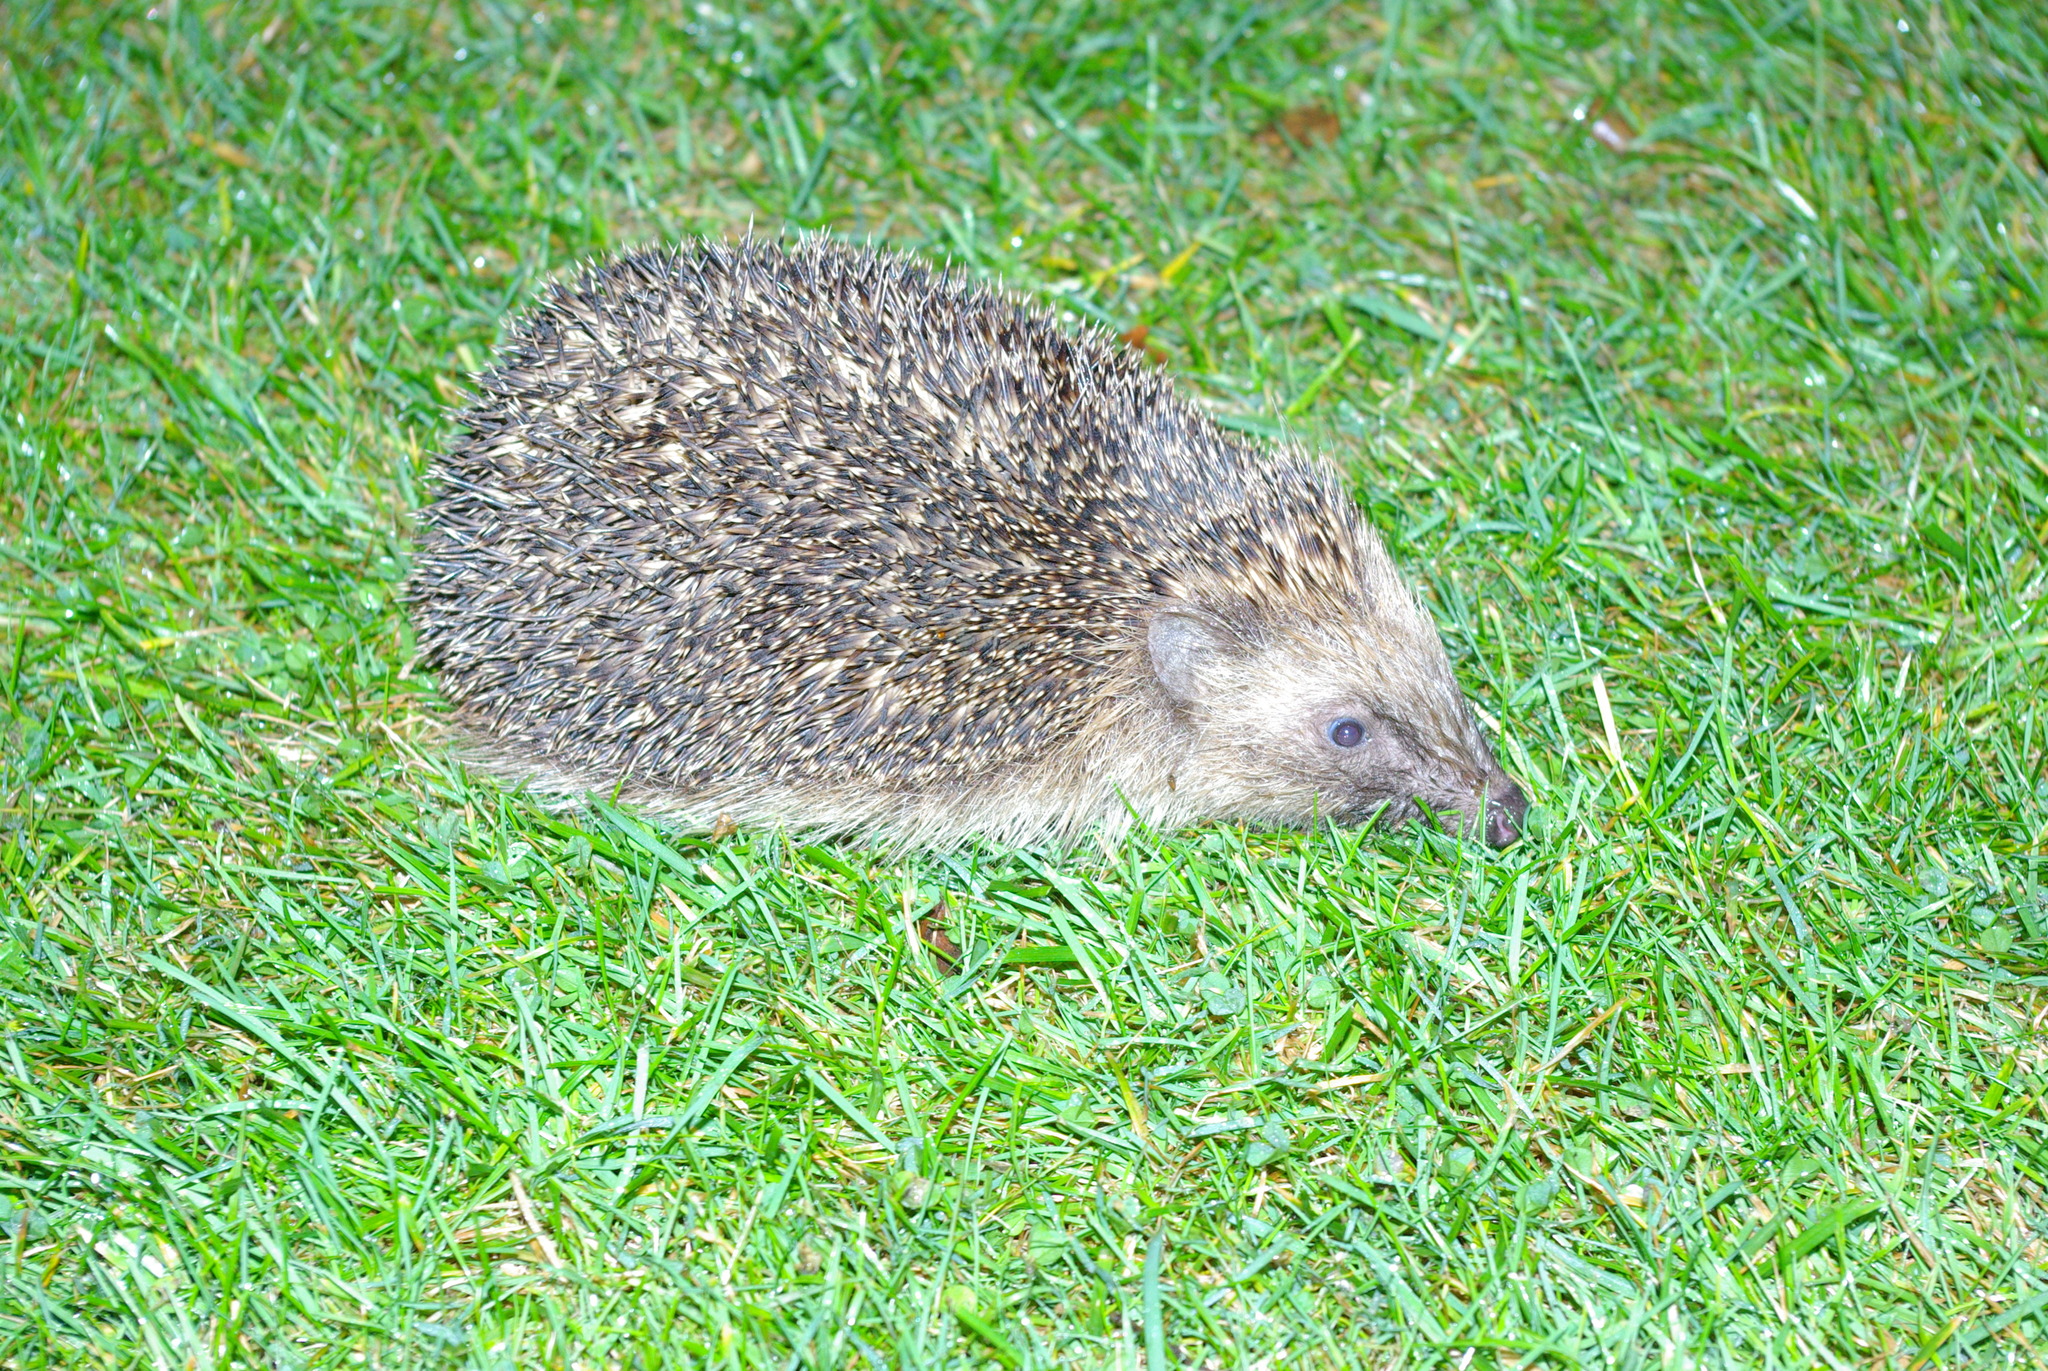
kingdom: Animalia
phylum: Chordata
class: Mammalia
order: Erinaceomorpha
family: Erinaceidae
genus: Erinaceus
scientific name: Erinaceus europaeus
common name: West european hedgehog
